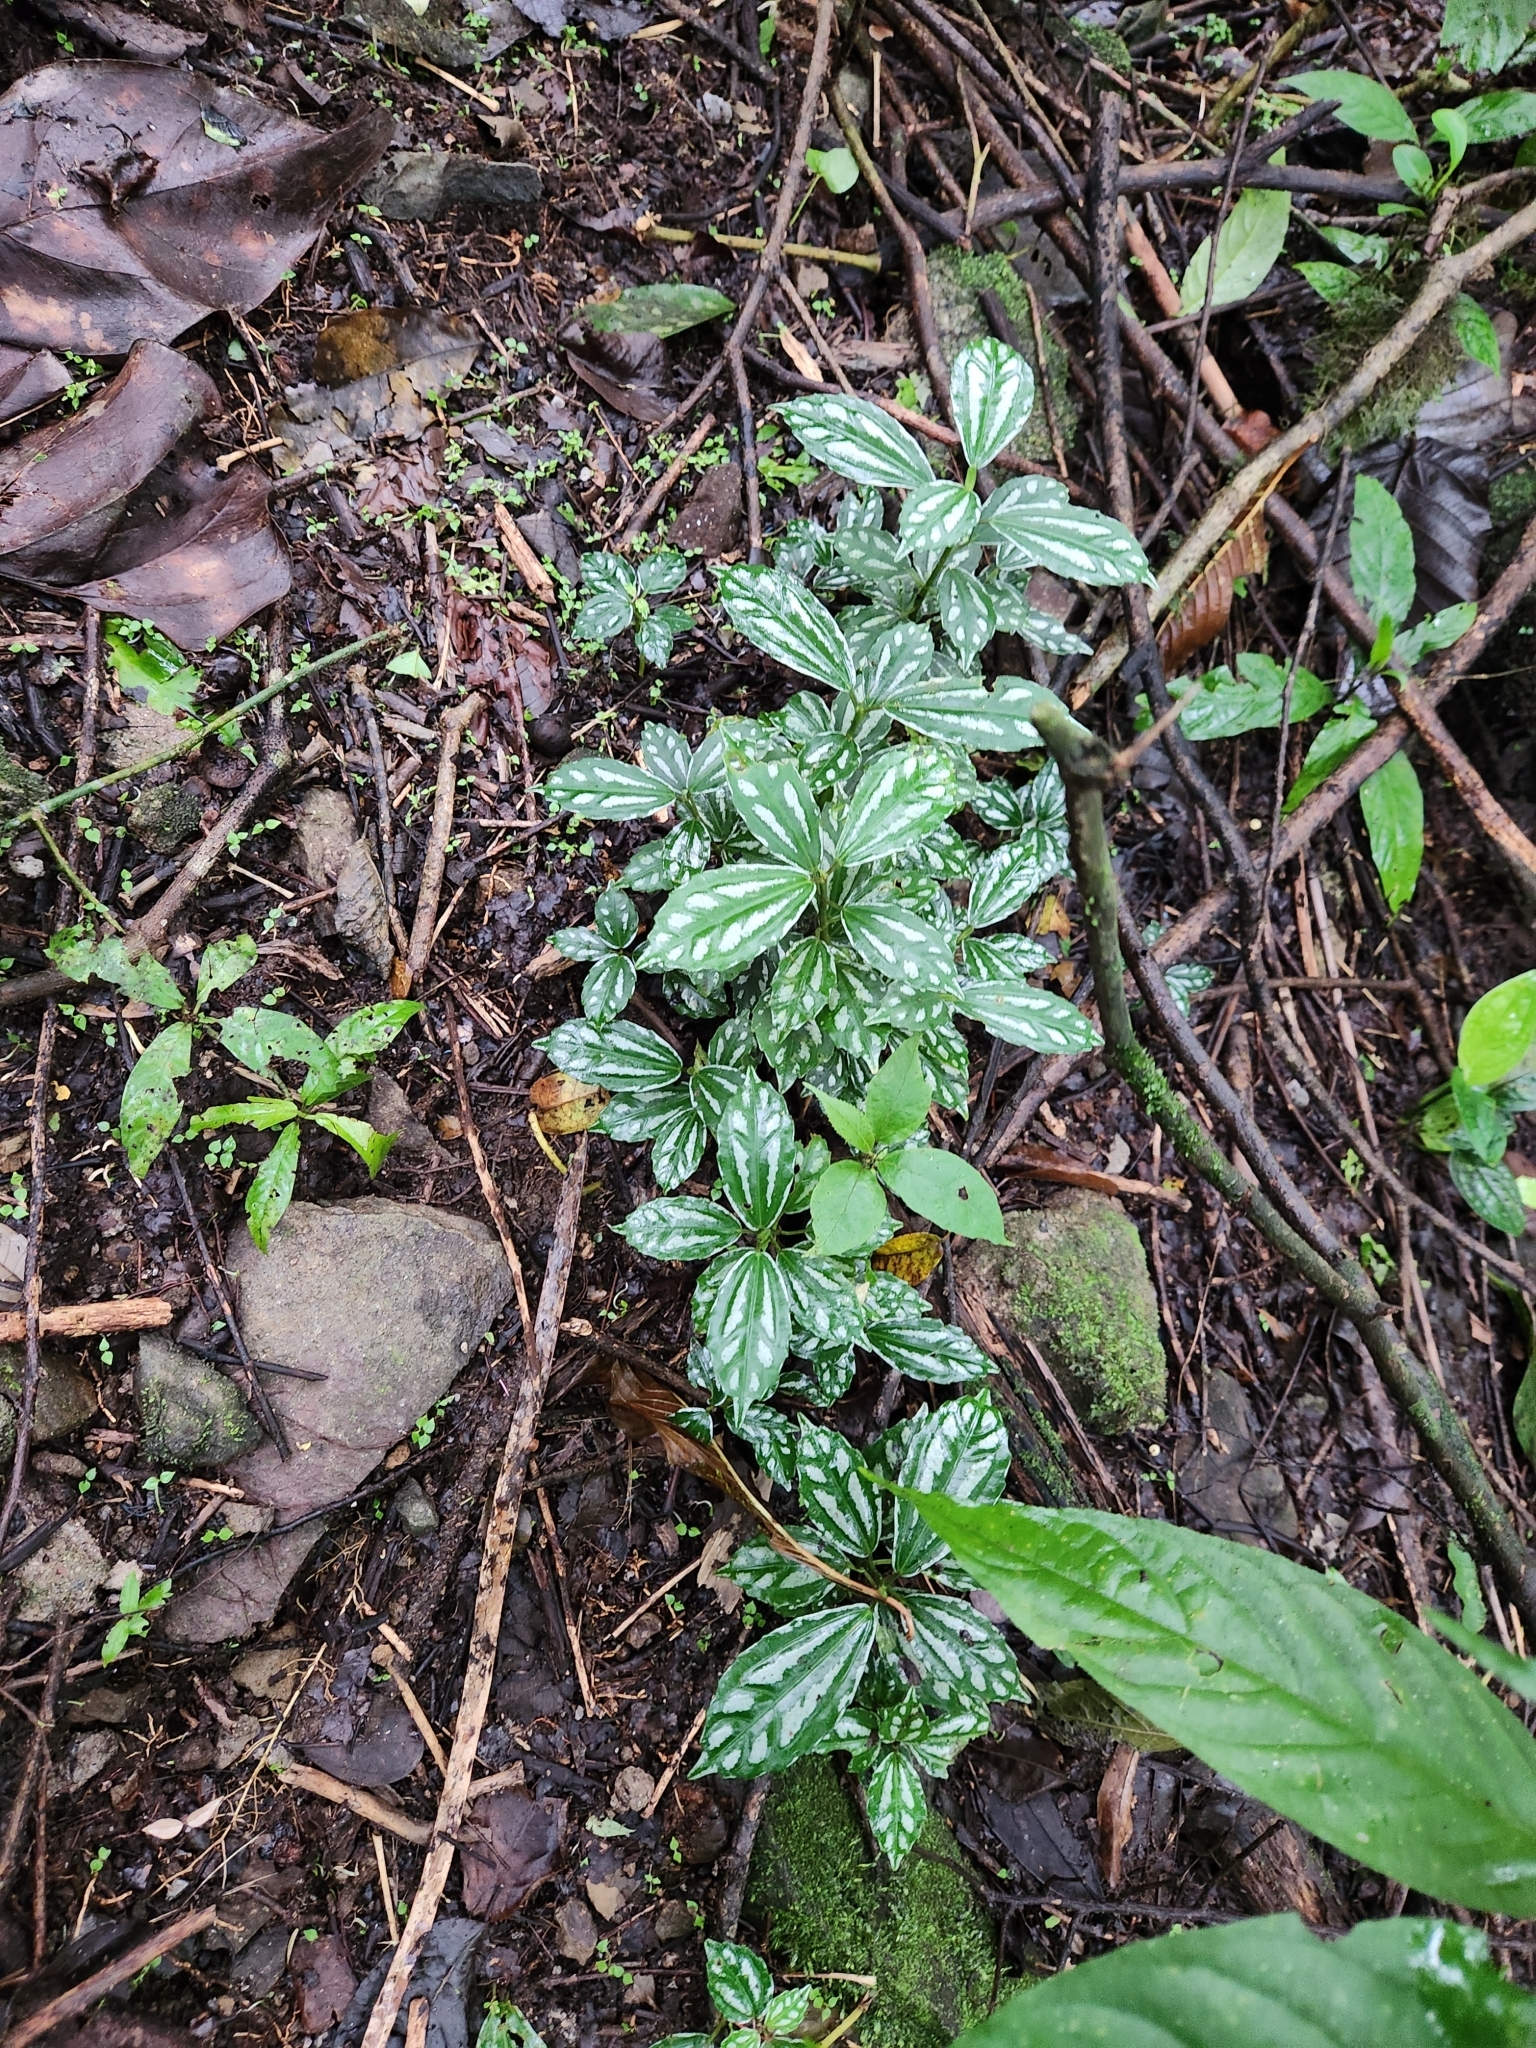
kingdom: Plantae
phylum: Tracheophyta
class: Magnoliopsida
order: Rosales
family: Urticaceae
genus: Pilea
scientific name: Pilea cadierei
